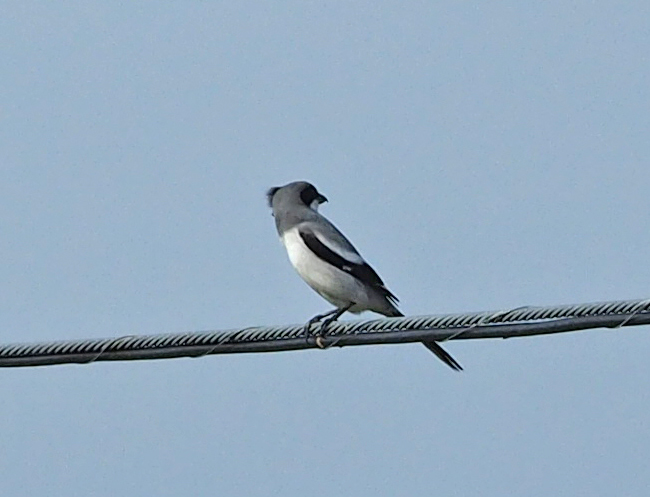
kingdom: Animalia
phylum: Chordata
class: Aves
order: Passeriformes
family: Laniidae
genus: Lanius
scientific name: Lanius ludovicianus
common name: Loggerhead shrike
